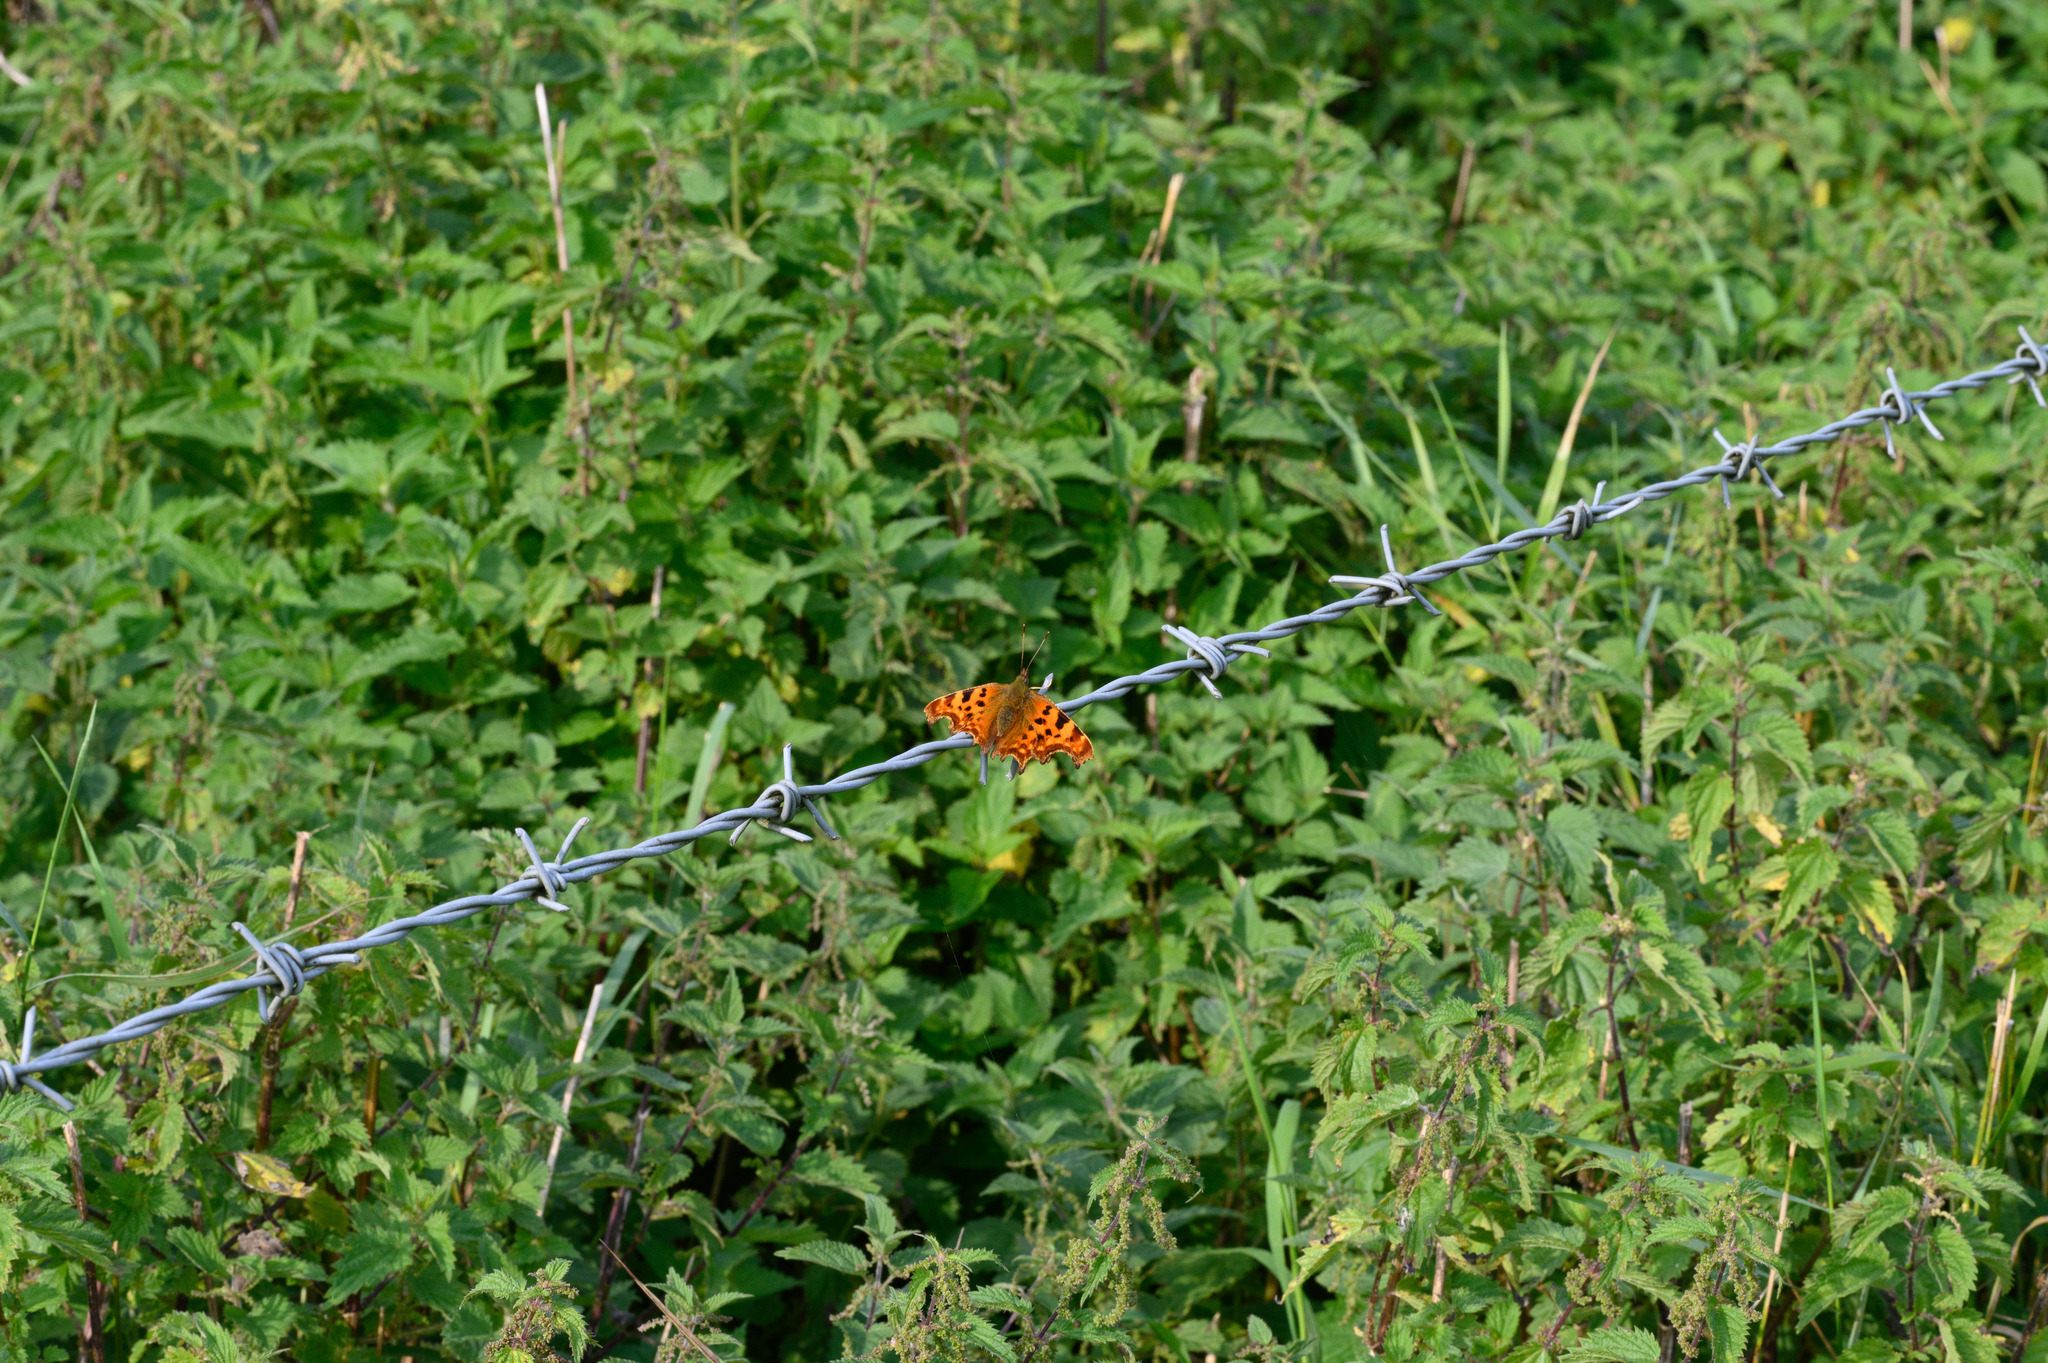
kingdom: Animalia
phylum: Arthropoda
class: Insecta
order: Lepidoptera
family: Nymphalidae
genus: Polygonia
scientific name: Polygonia c-album
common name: Comma
